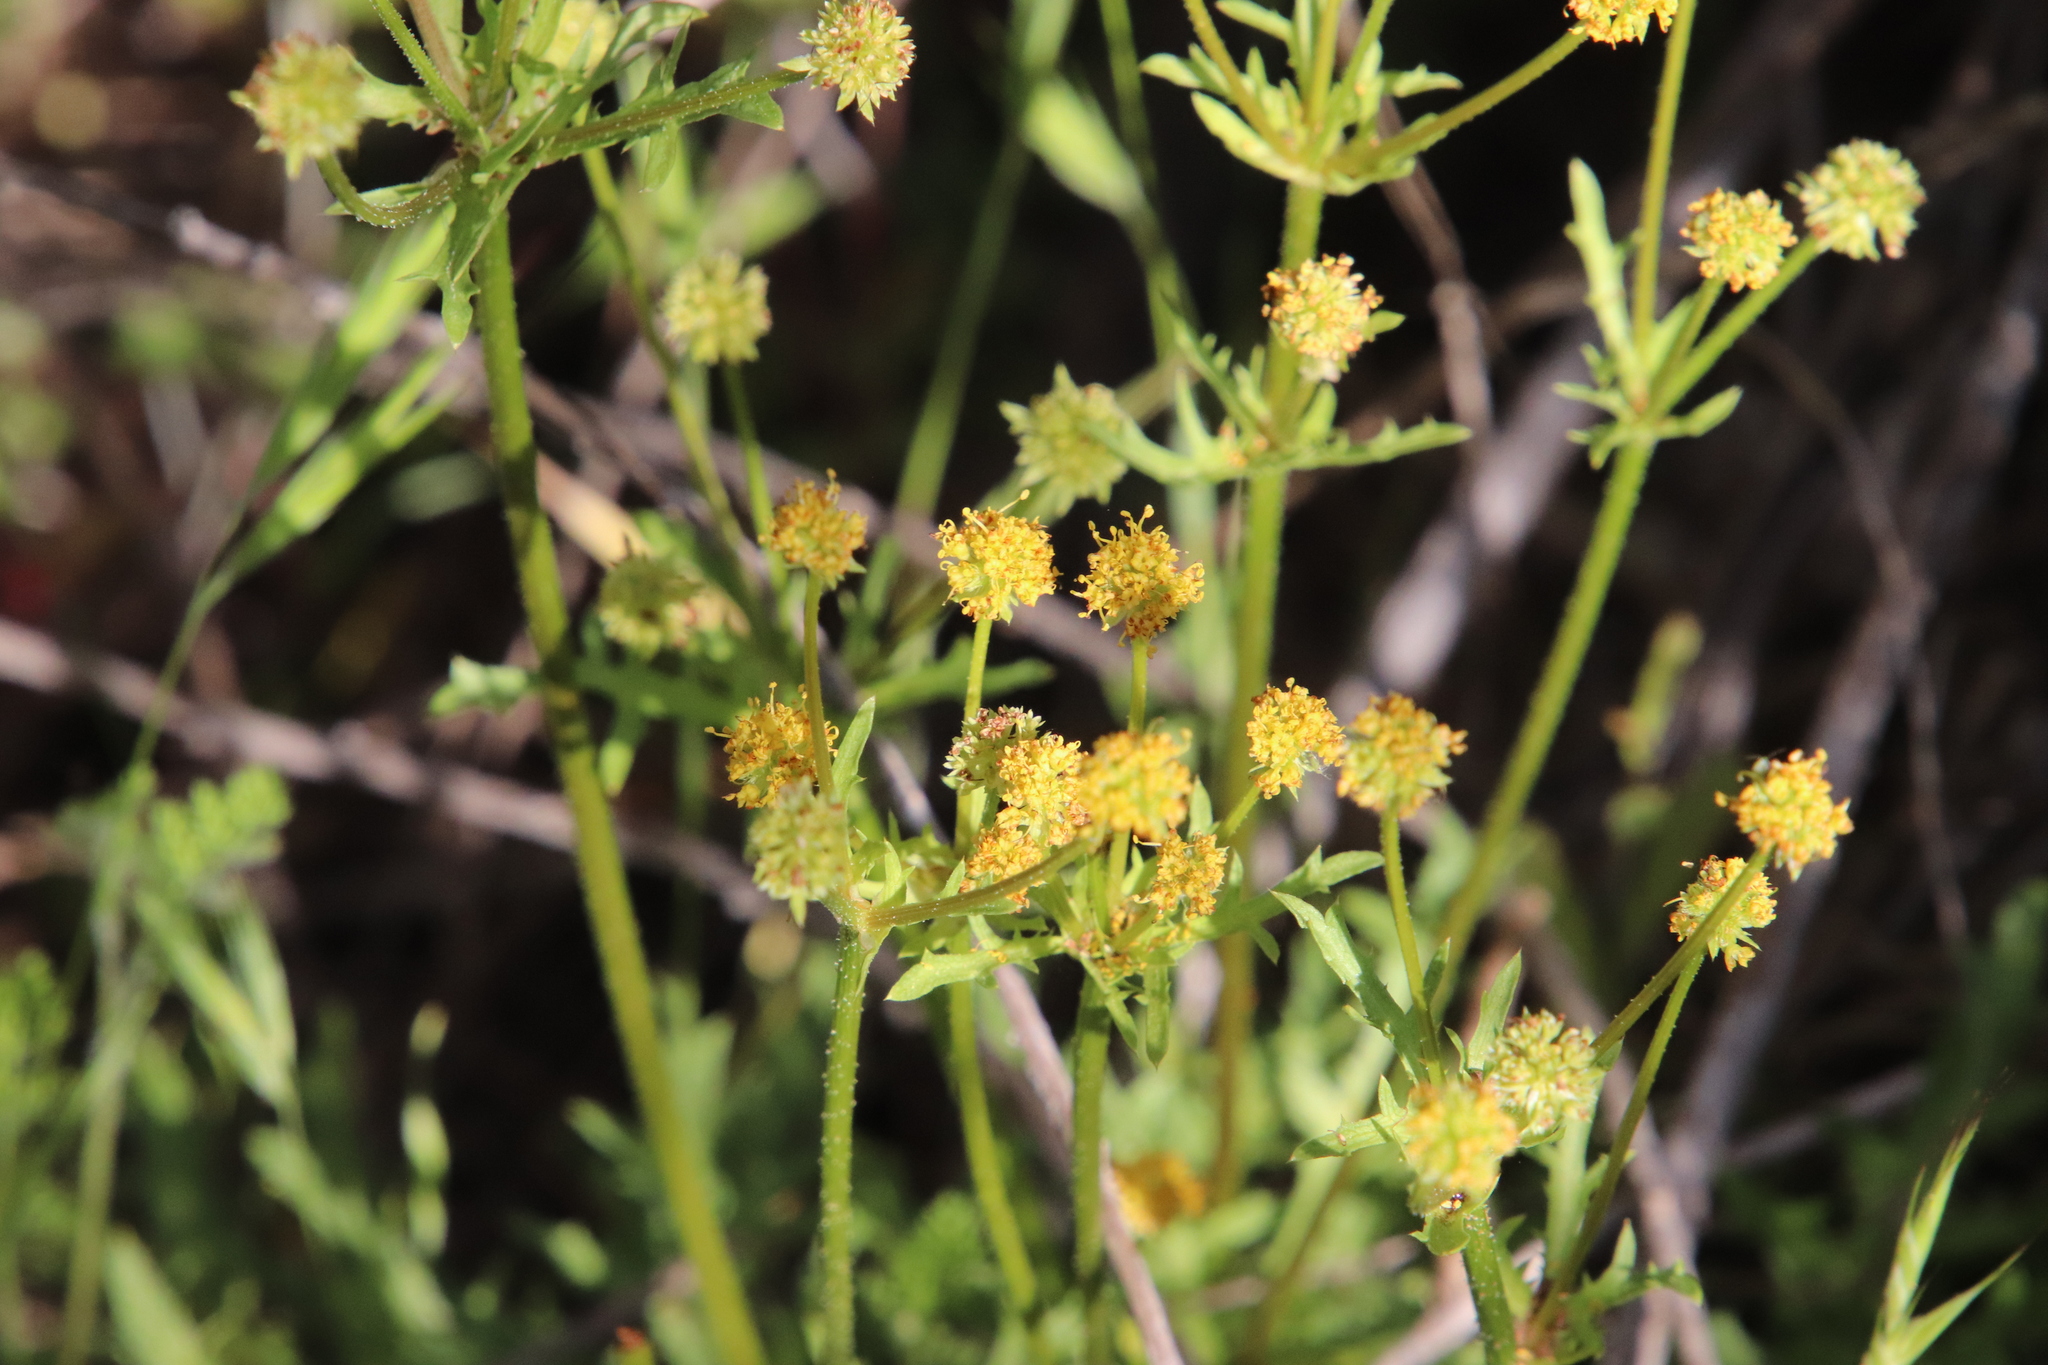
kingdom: Plantae
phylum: Tracheophyta
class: Magnoliopsida
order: Apiales
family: Apiaceae
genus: Sanicula
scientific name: Sanicula arguta
